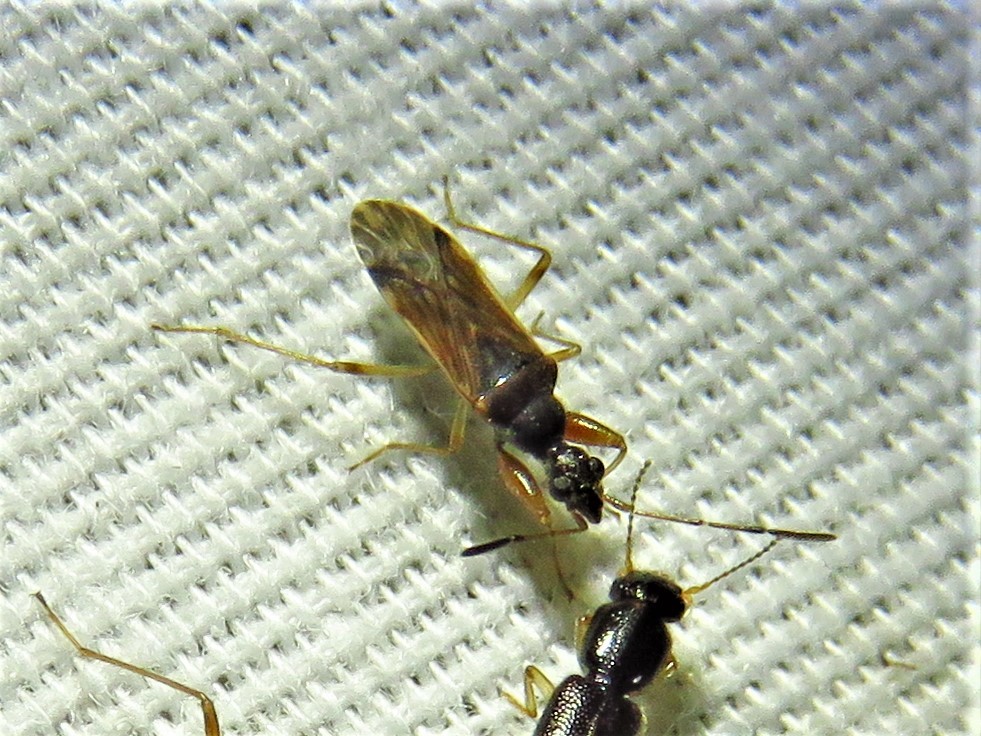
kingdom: Animalia
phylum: Arthropoda
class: Insecta
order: Hemiptera
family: Rhyparochromidae
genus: Heraeus
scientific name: Heraeus plebejus
